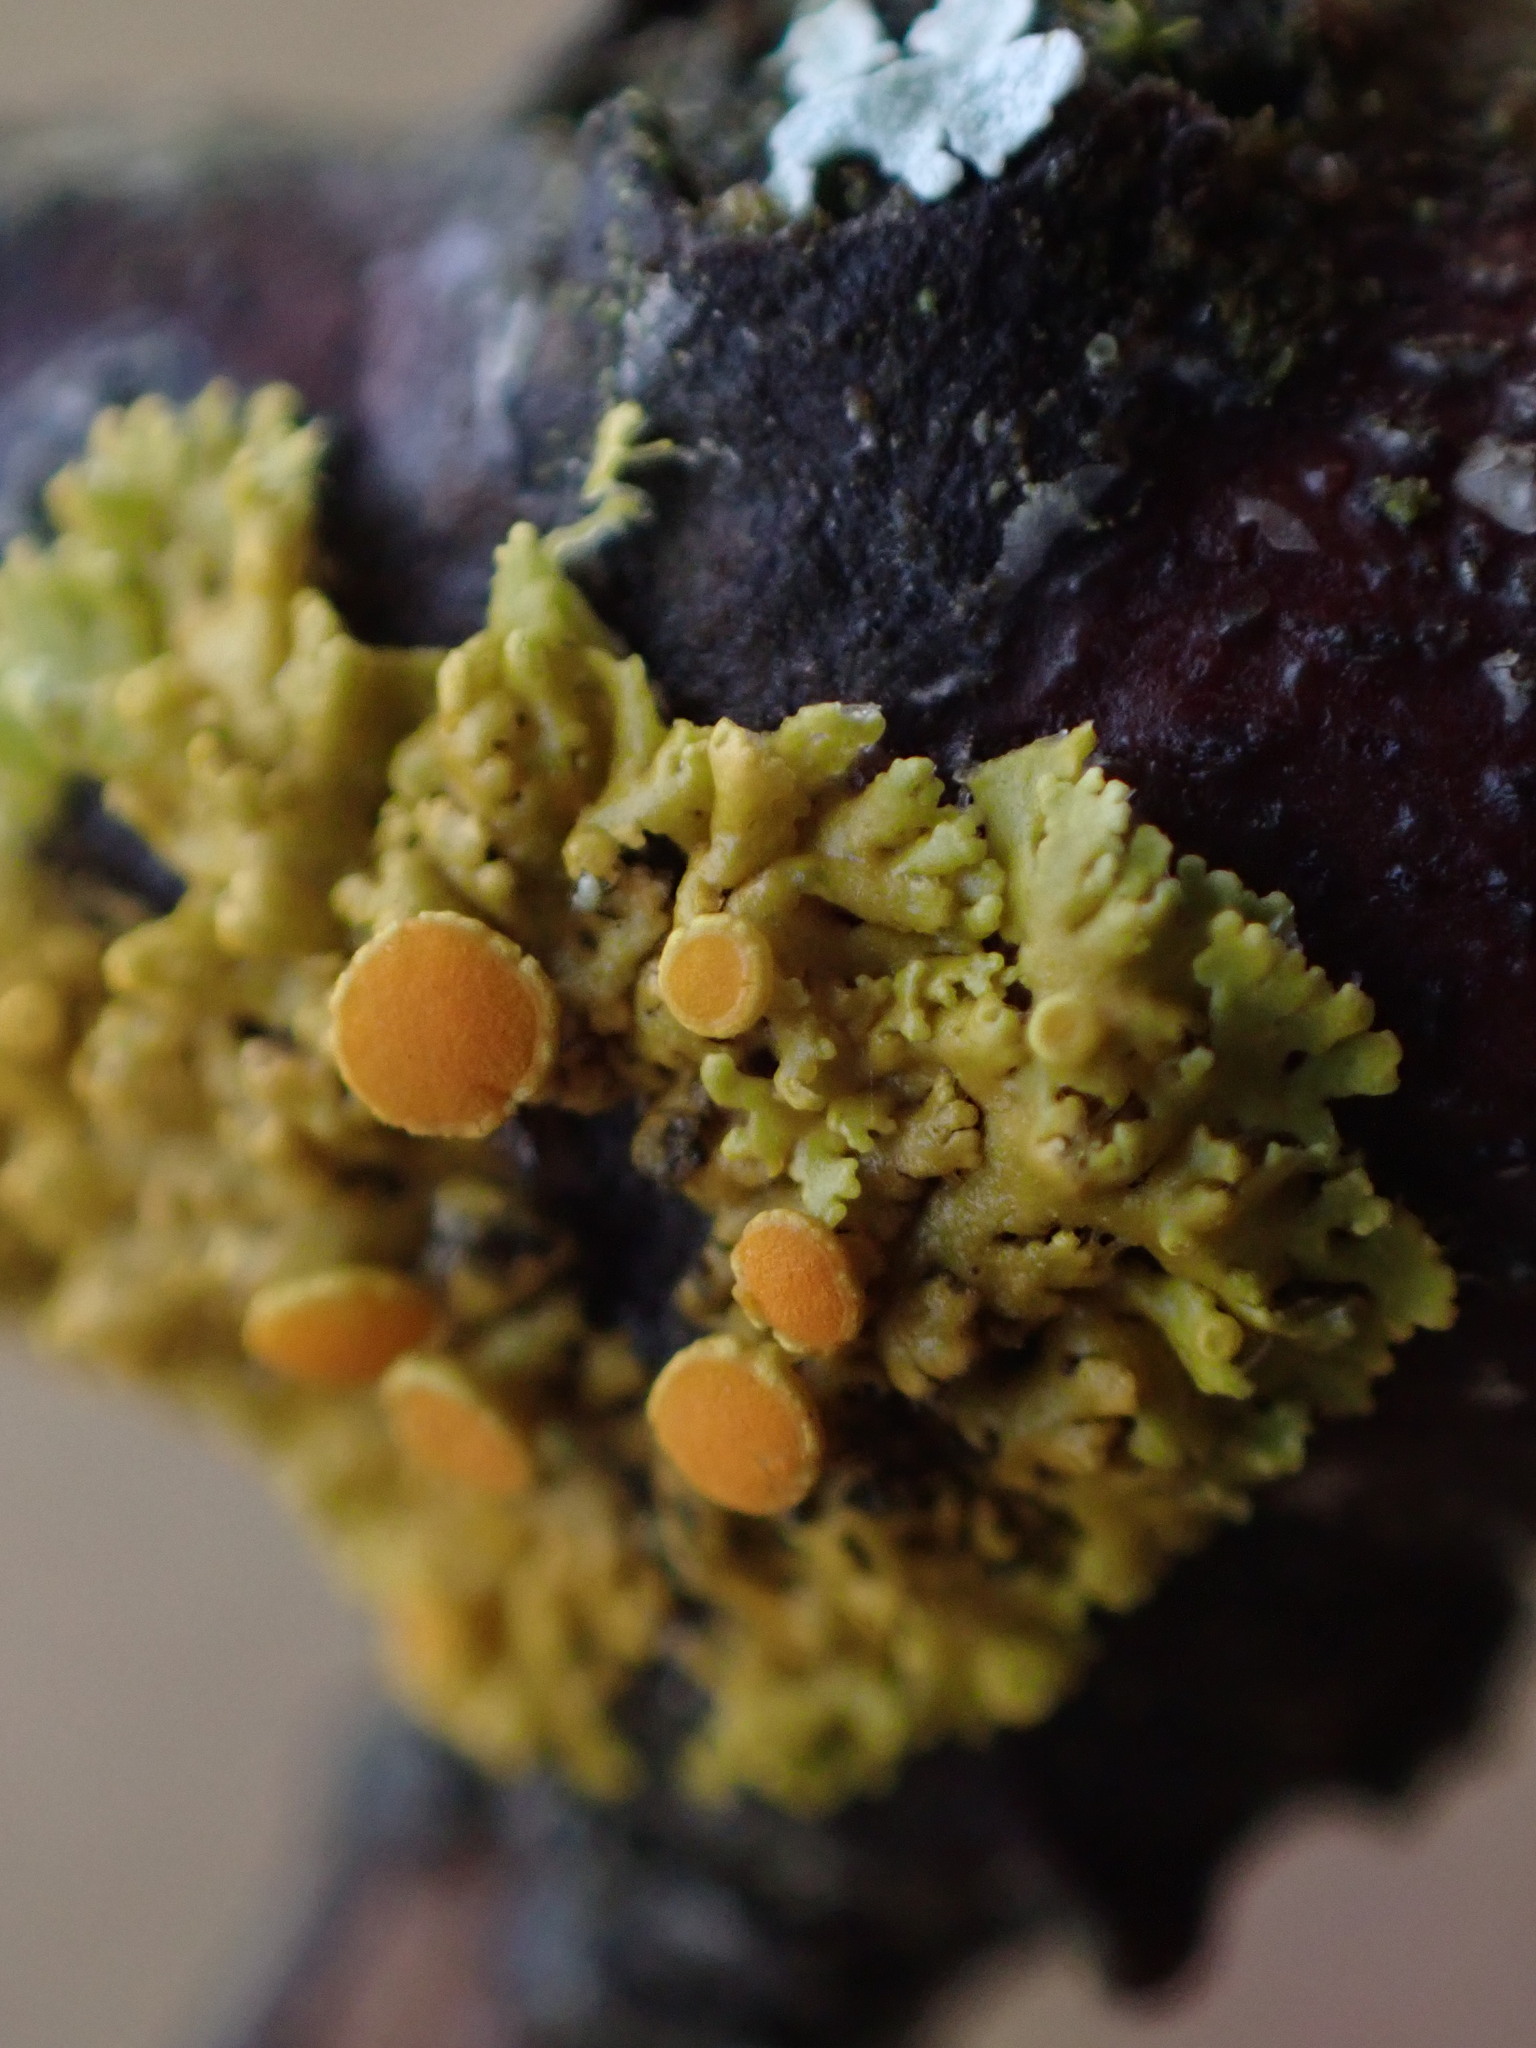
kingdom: Fungi
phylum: Ascomycota
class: Lecanoromycetes
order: Teloschistales
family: Teloschistaceae
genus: Gallowayella
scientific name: Gallowayella hasseana
